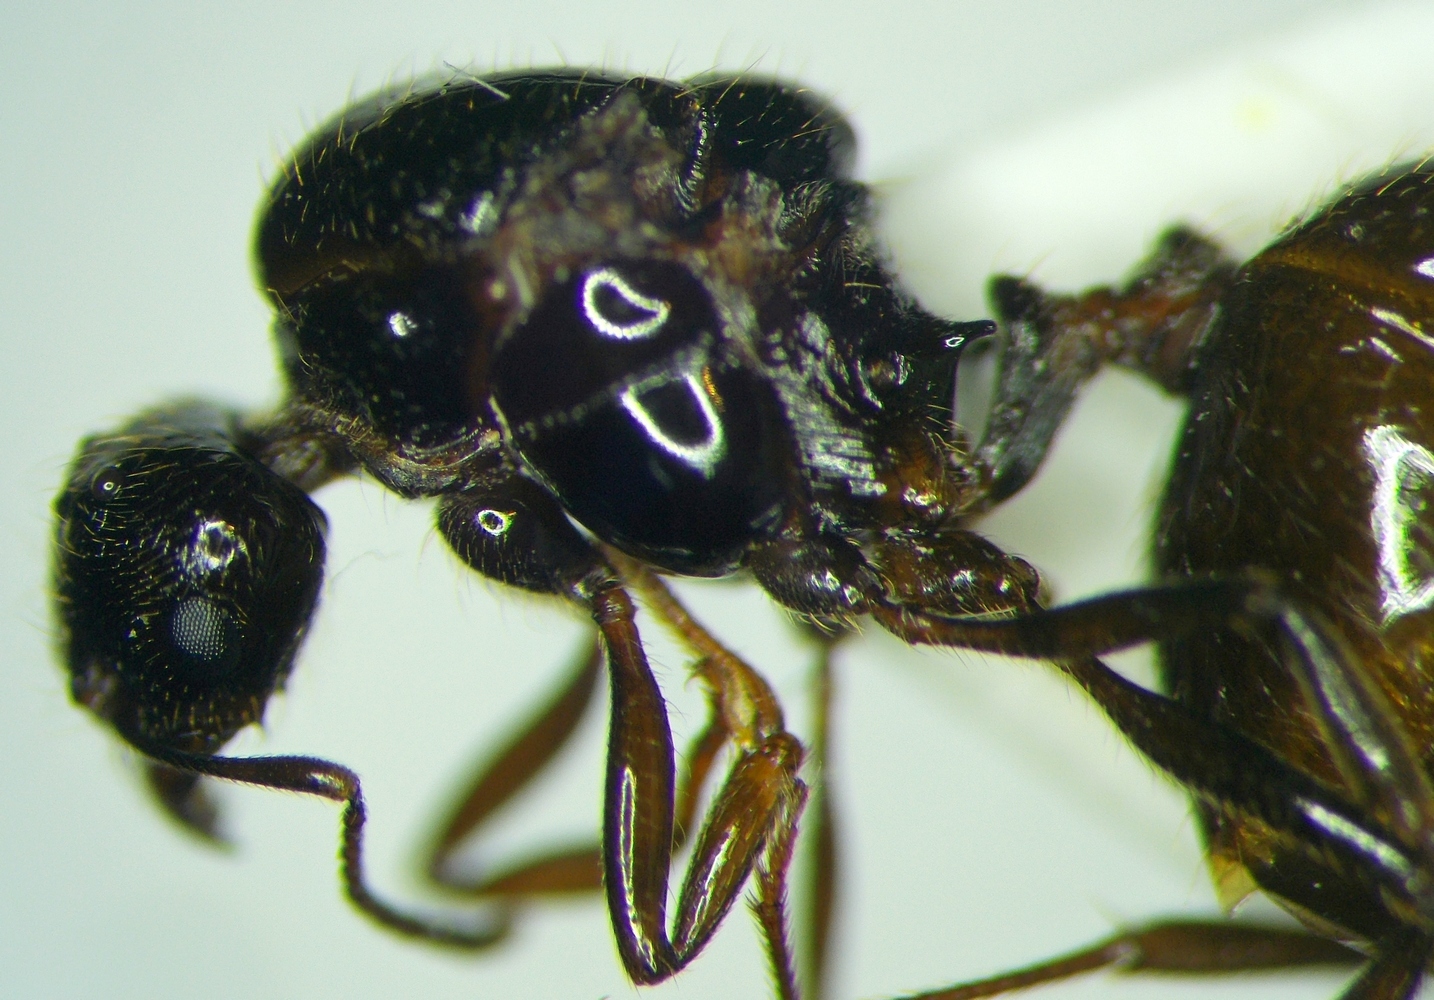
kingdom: Animalia
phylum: Arthropoda
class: Insecta
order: Hymenoptera
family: Formicidae
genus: Aphaenogaster
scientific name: Aphaenogaster subterraneoides
